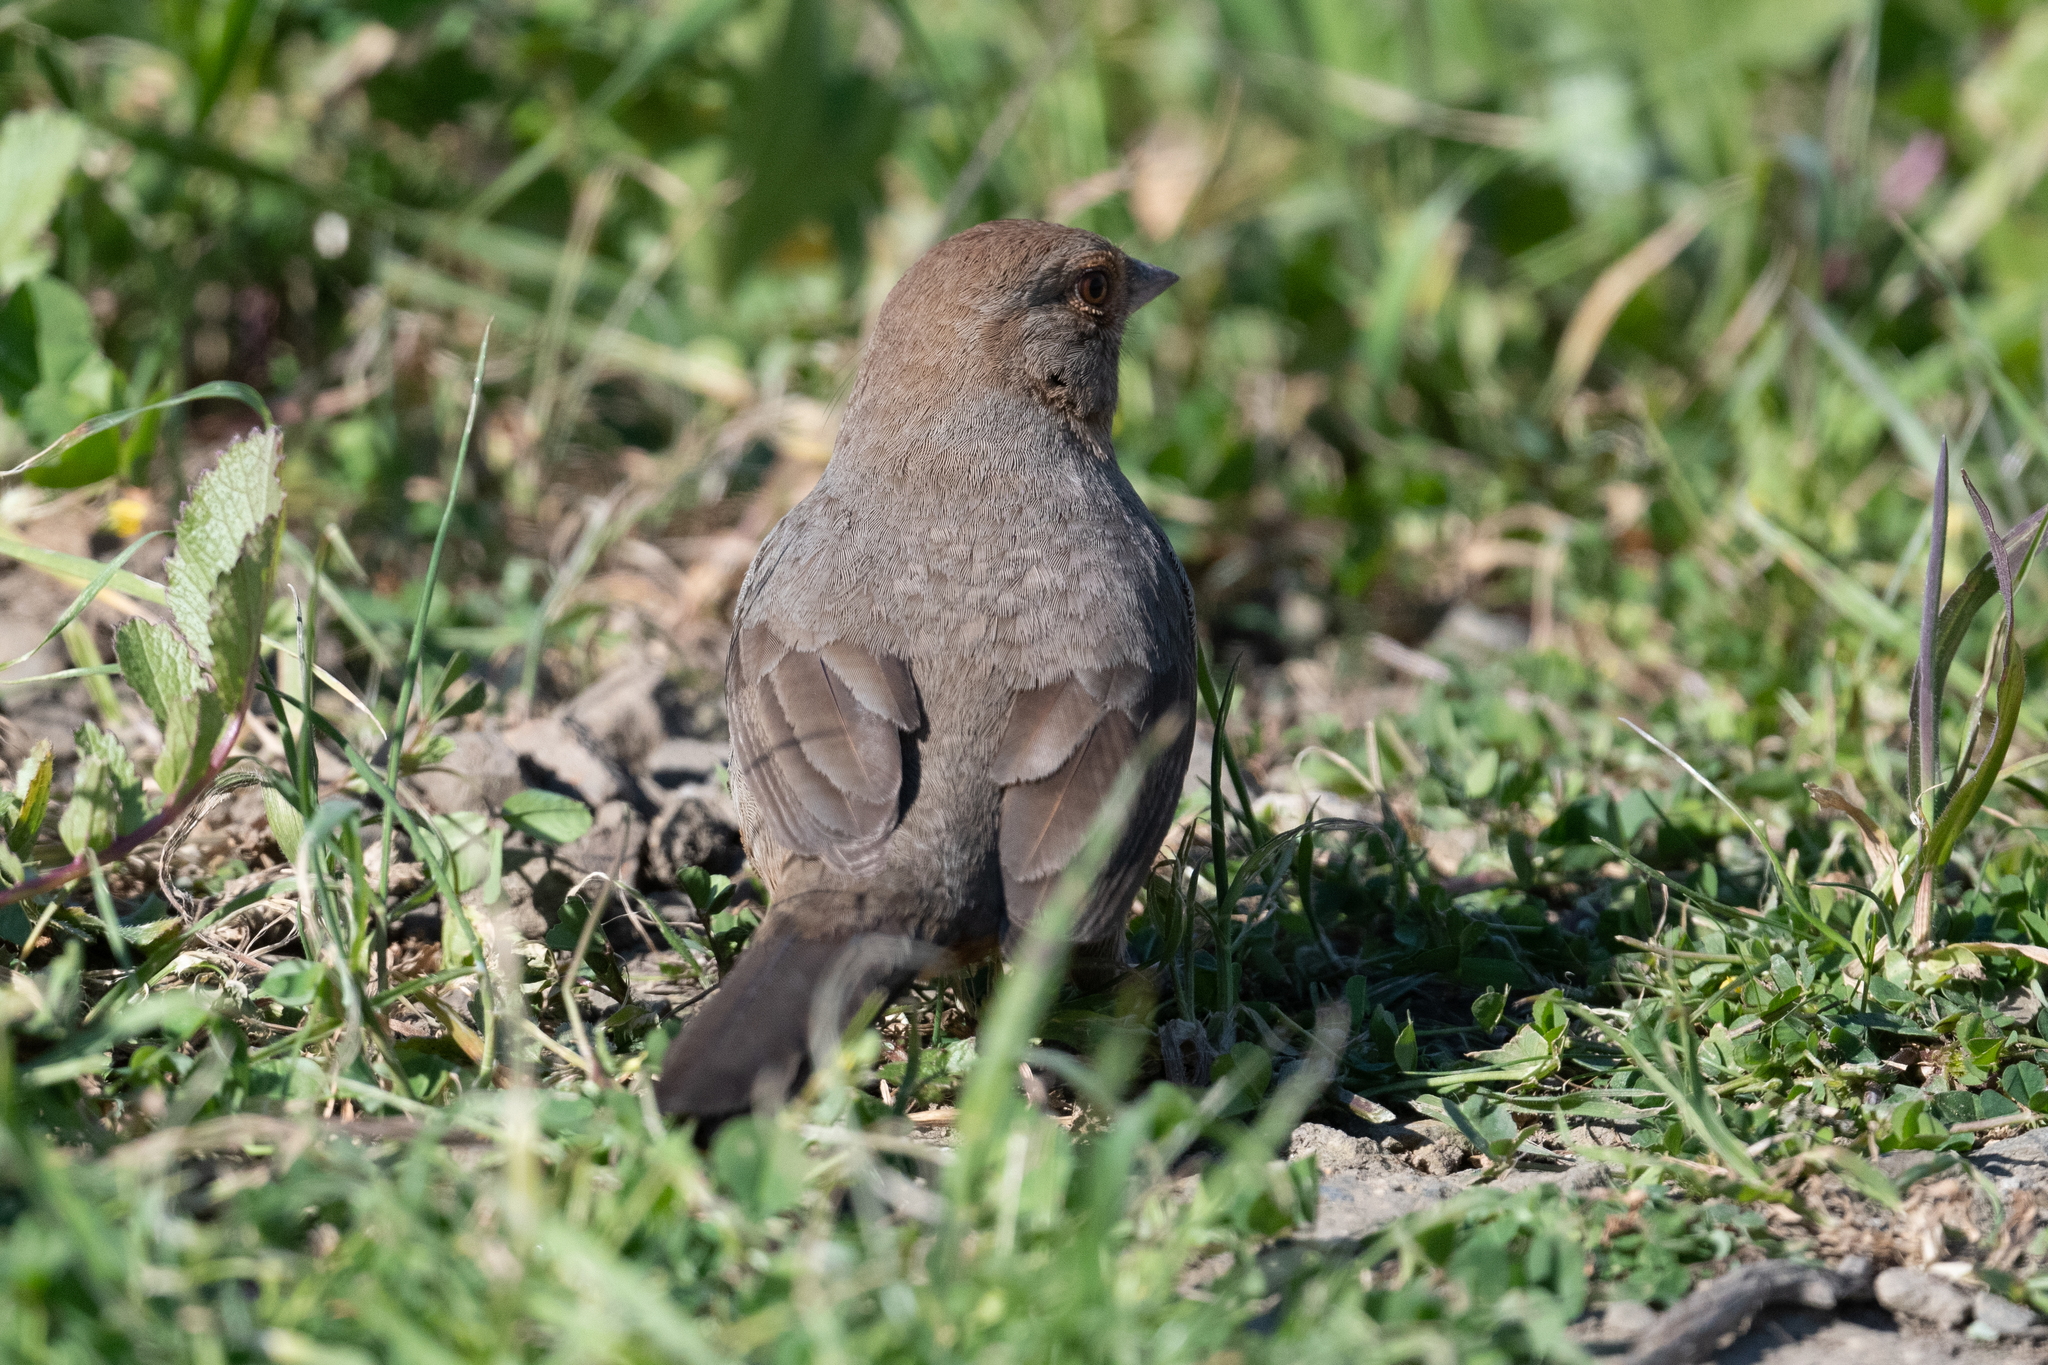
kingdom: Animalia
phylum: Chordata
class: Aves
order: Passeriformes
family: Passerellidae
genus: Melozone
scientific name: Melozone crissalis
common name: California towhee
